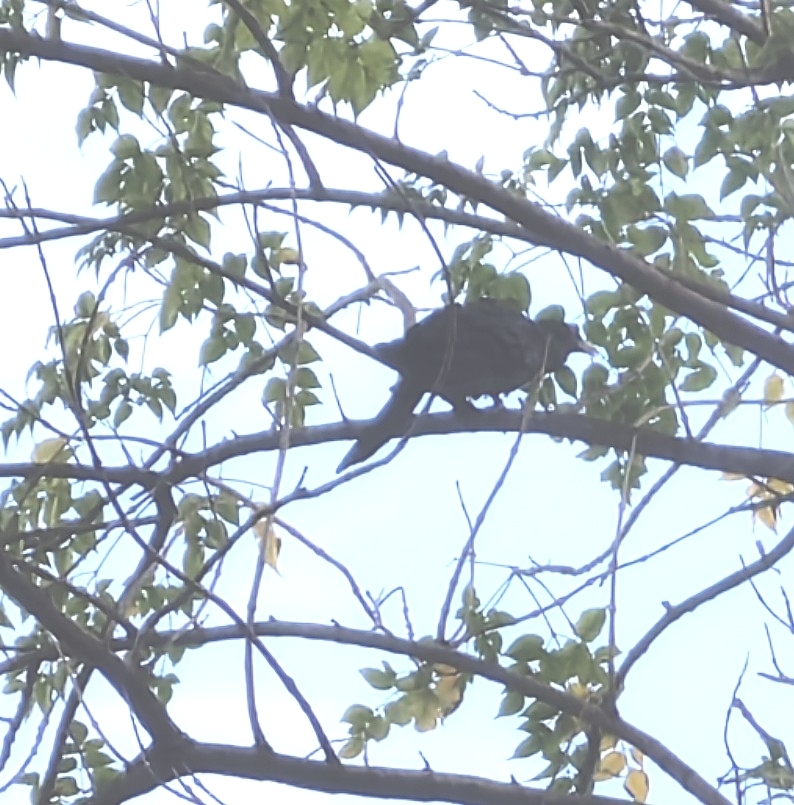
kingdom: Animalia
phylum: Chordata
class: Aves
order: Cuculiformes
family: Cuculidae
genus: Eudynamys
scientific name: Eudynamys scolopaceus
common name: Asian koel
